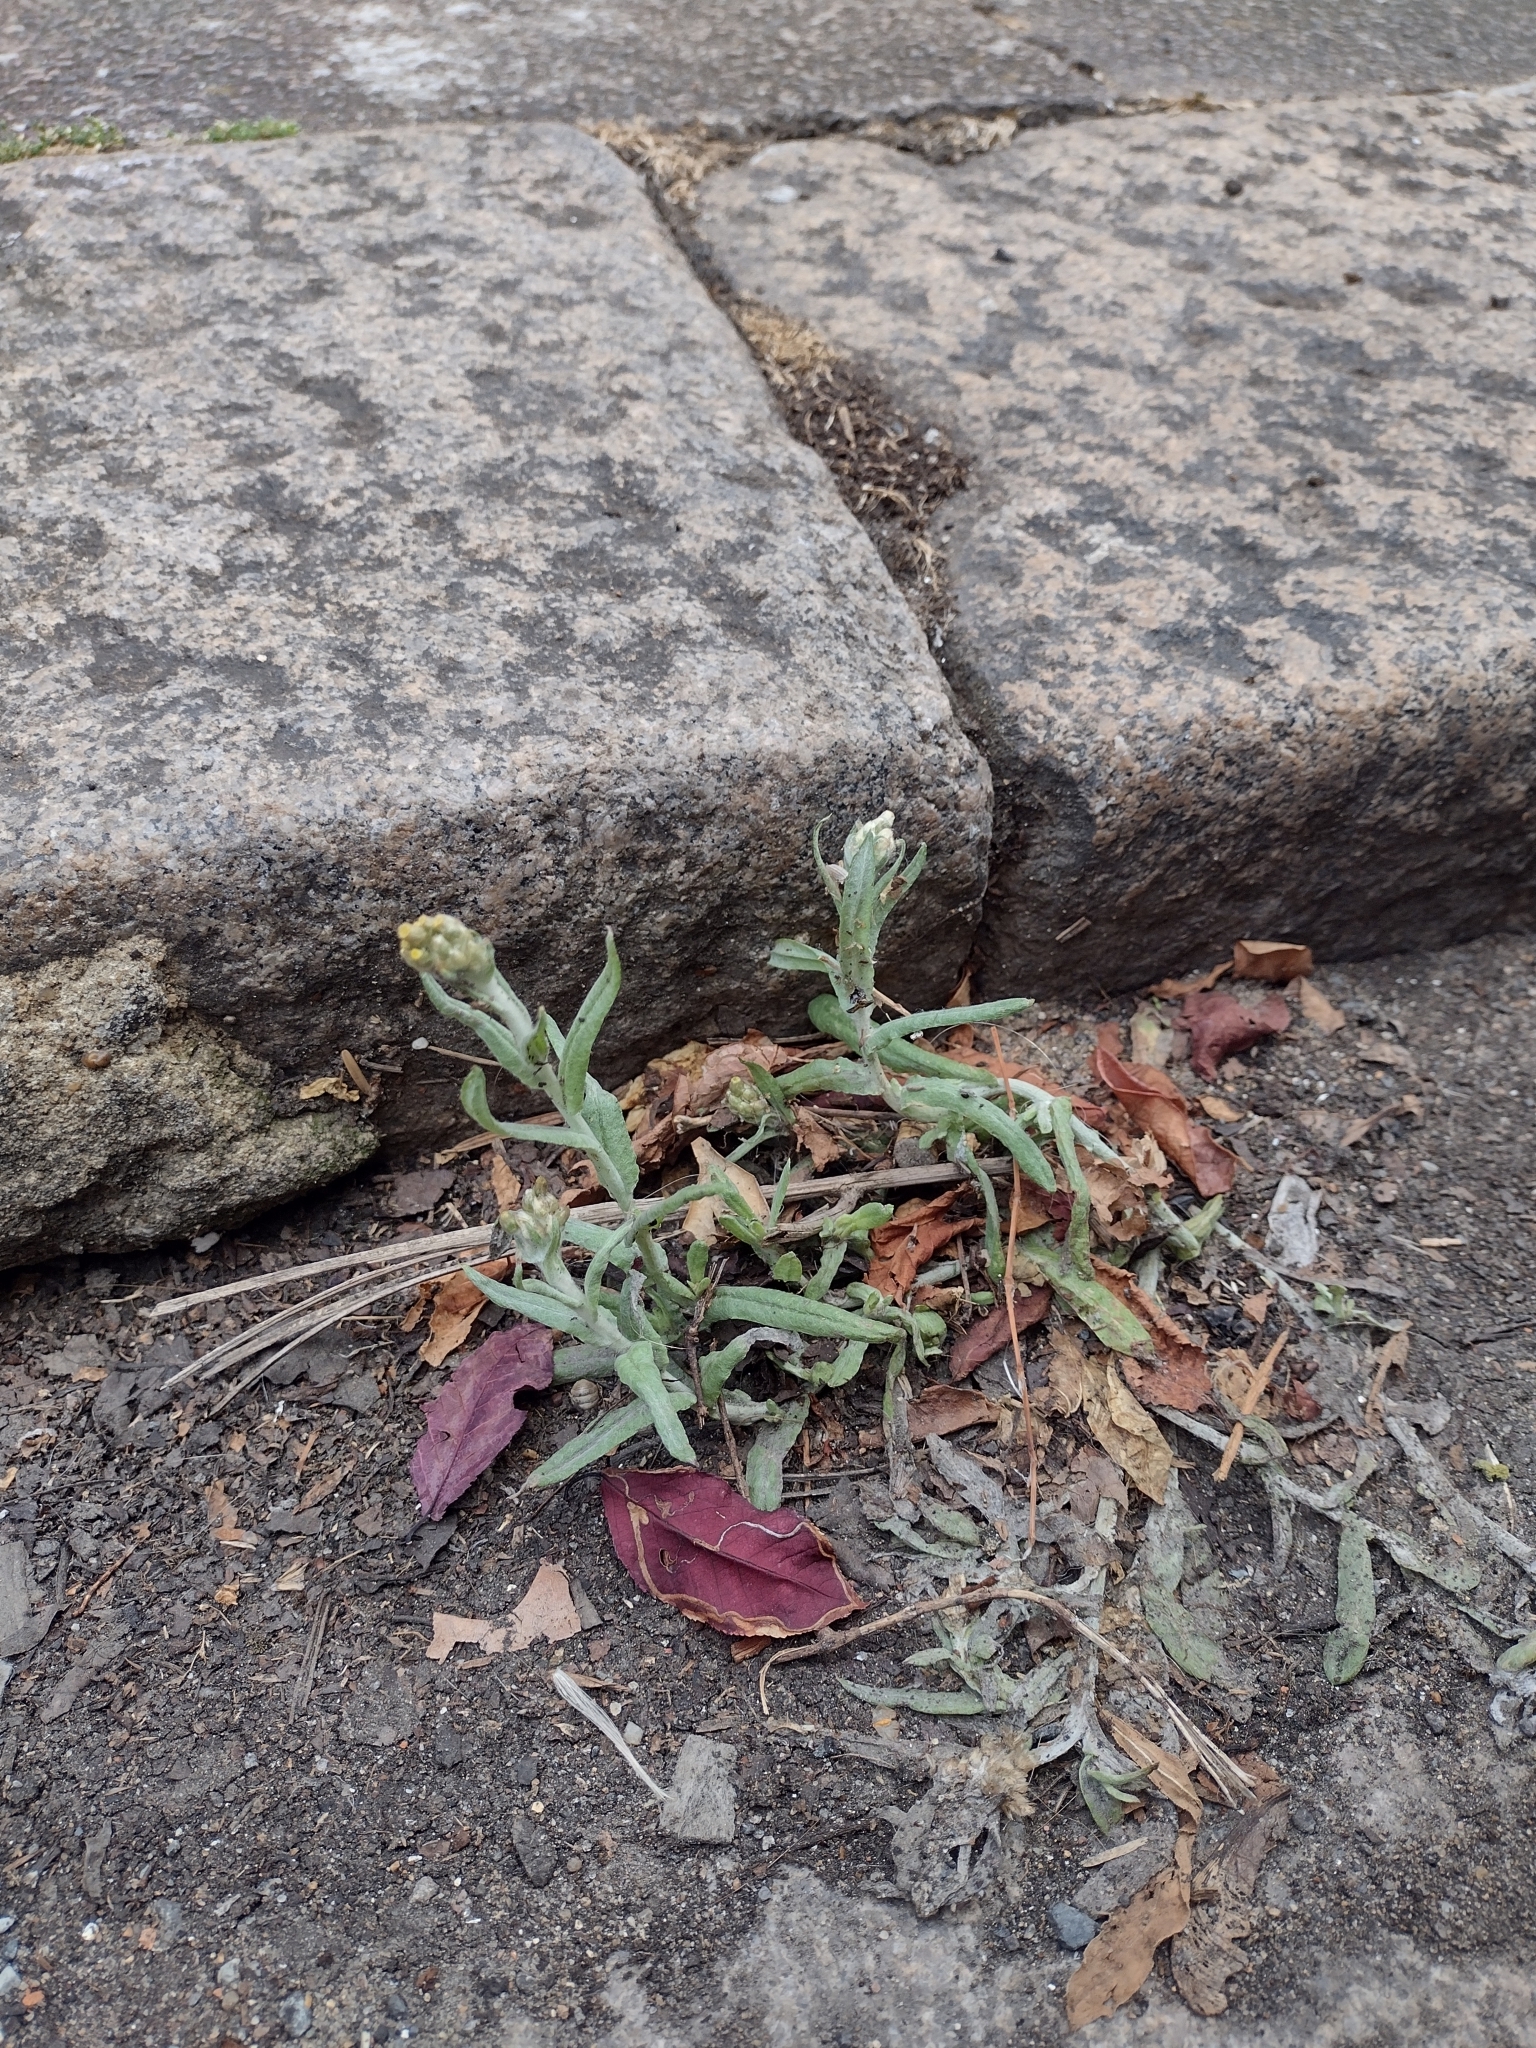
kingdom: Plantae
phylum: Tracheophyta
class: Magnoliopsida
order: Asterales
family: Asteraceae
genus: Helichrysum
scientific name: Helichrysum luteoalbum
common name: Daisy
